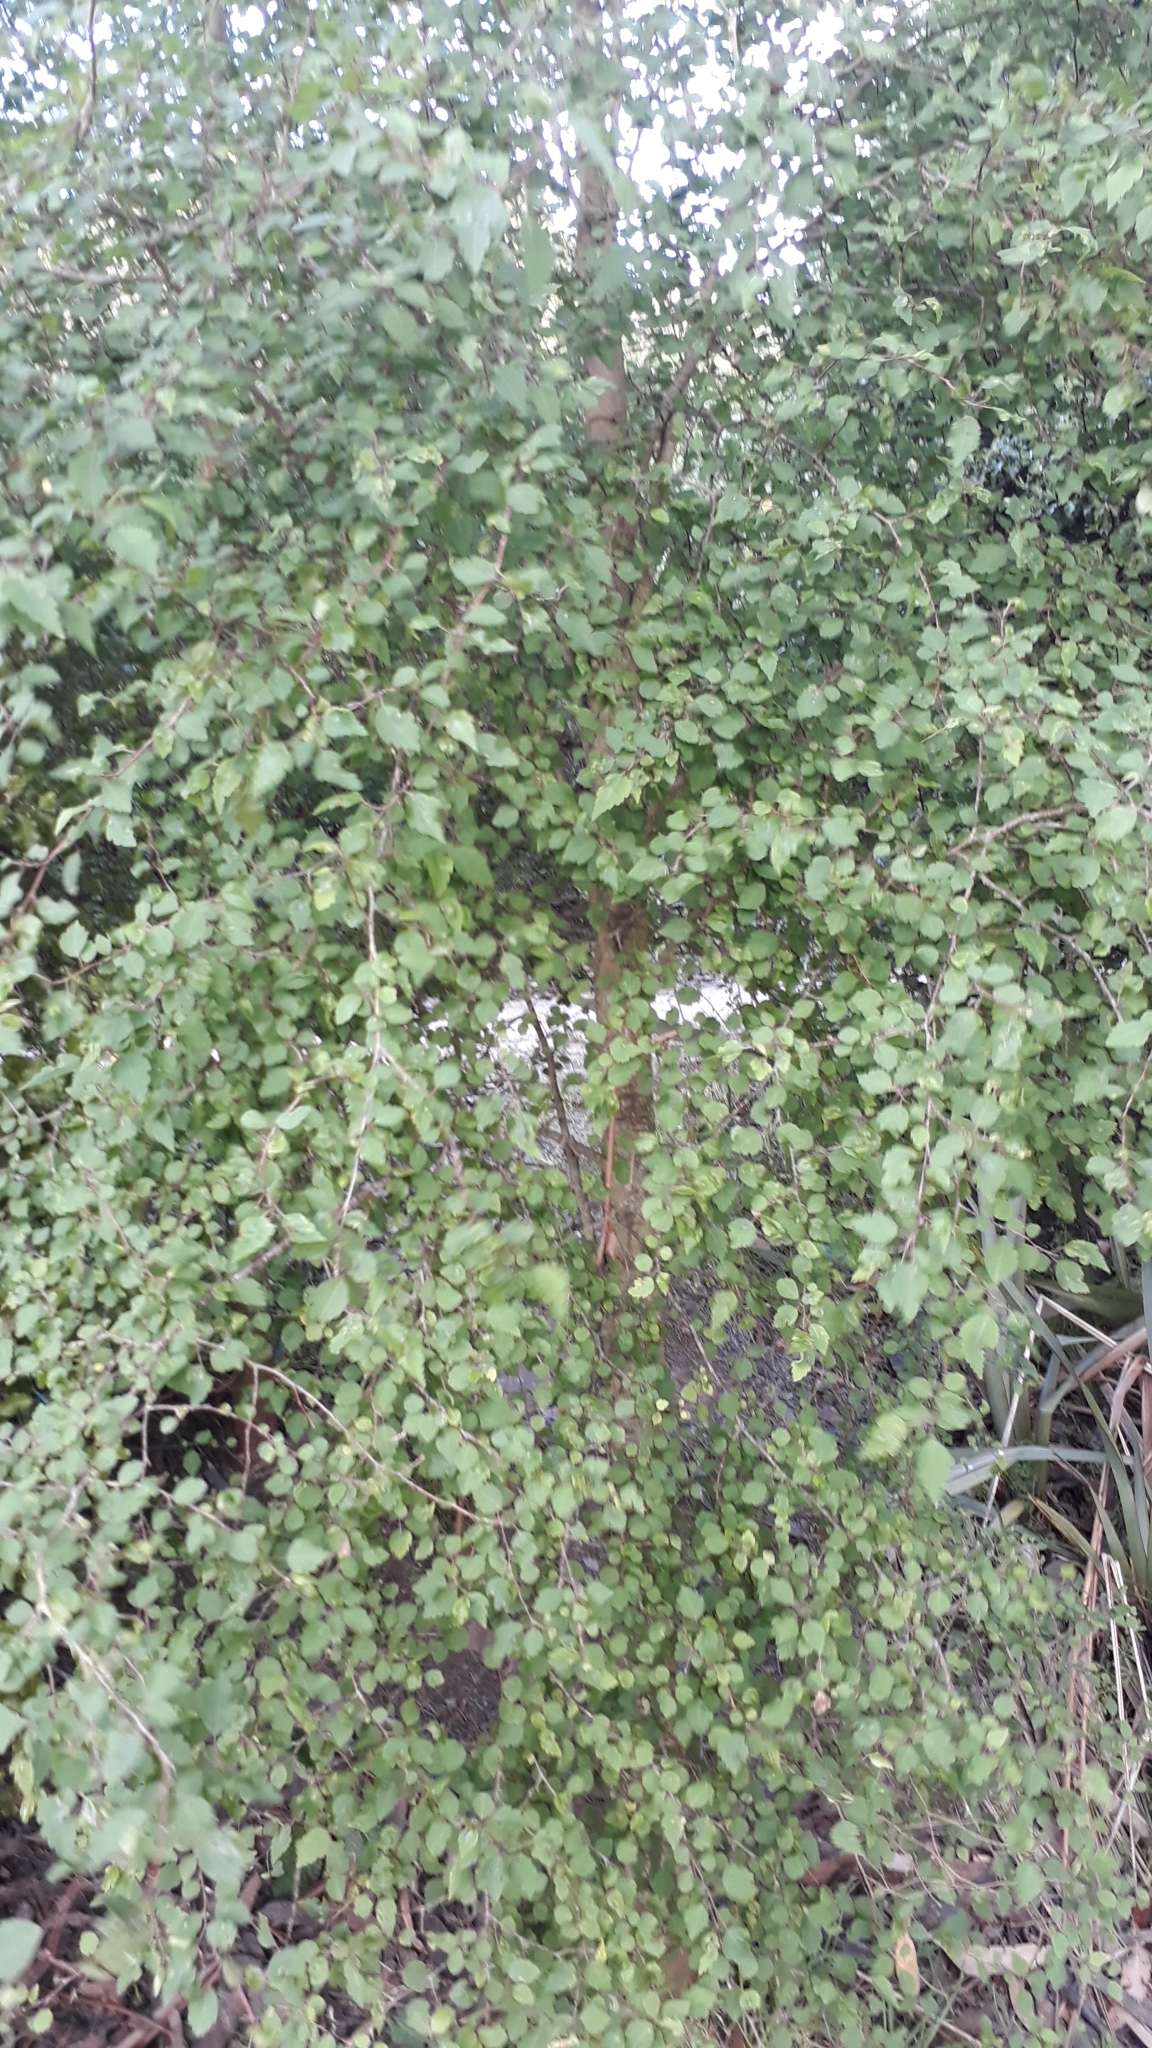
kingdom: Plantae
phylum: Tracheophyta
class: Magnoliopsida
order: Malvales
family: Malvaceae
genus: Plagianthus
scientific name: Plagianthus regius
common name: Manatu
